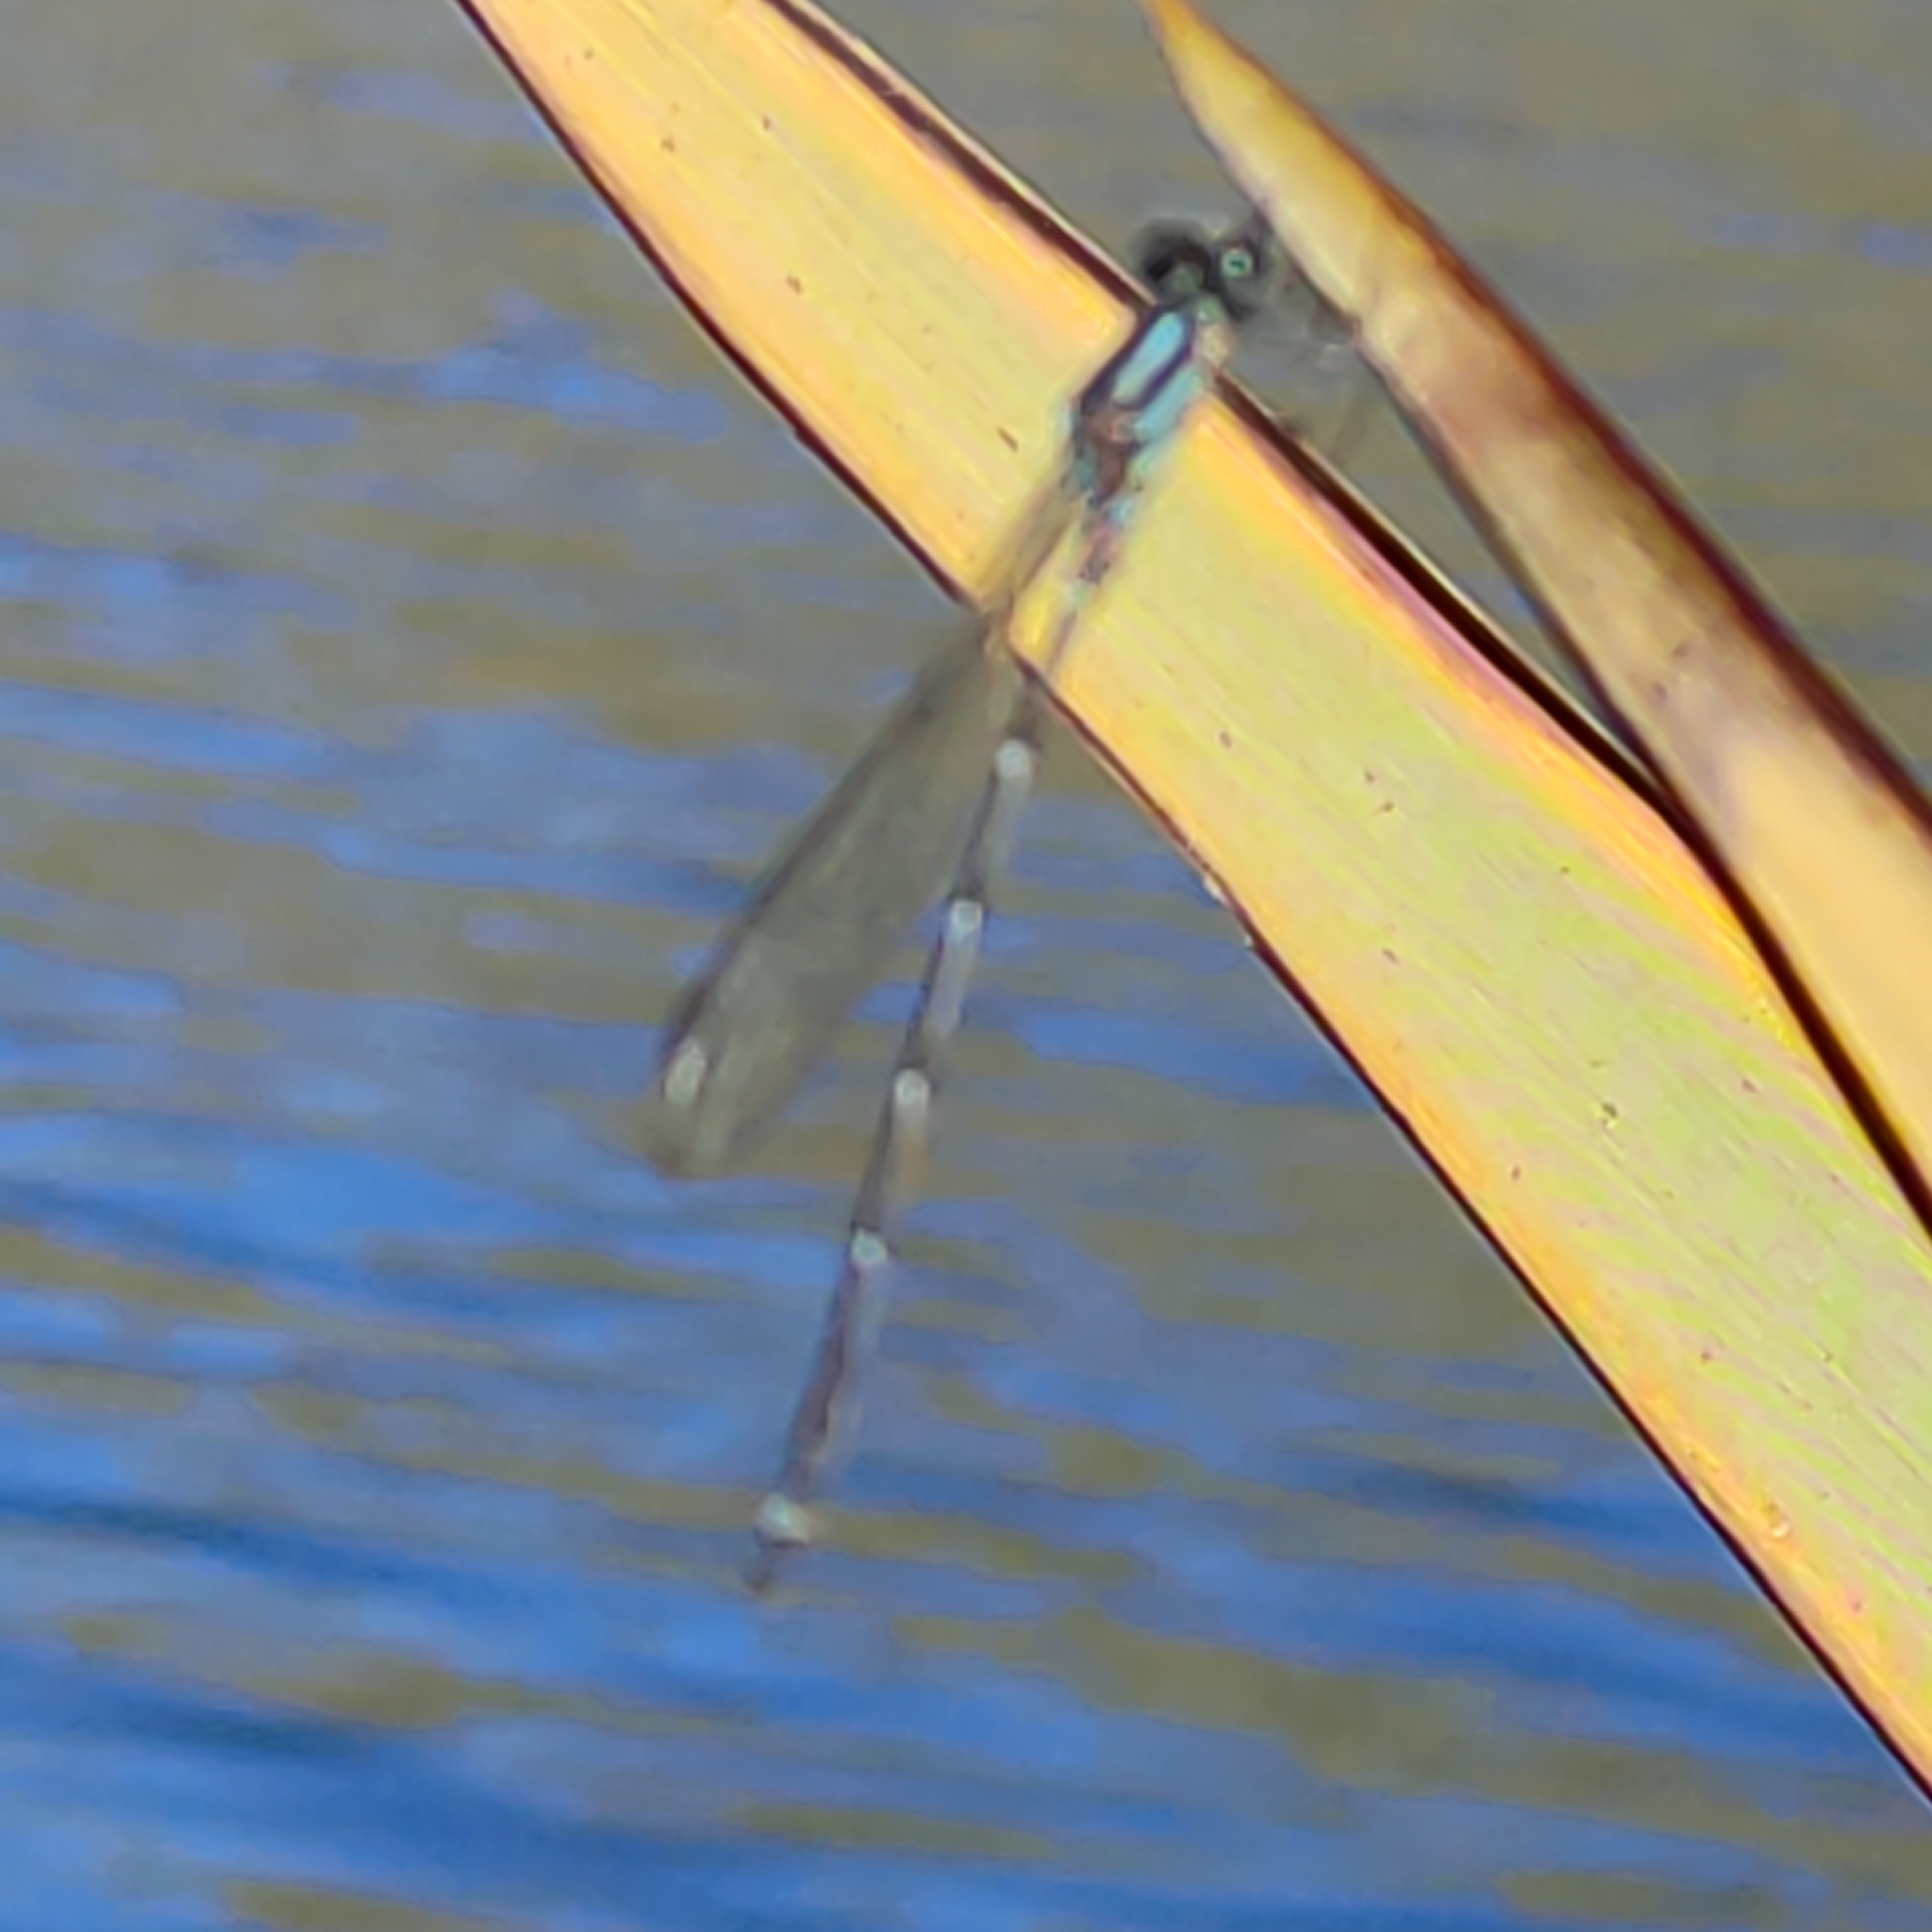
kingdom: Animalia
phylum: Arthropoda
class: Insecta
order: Odonata
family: Lestidae
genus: Austrolestes
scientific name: Austrolestes colensonis
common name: Blue damselfly
